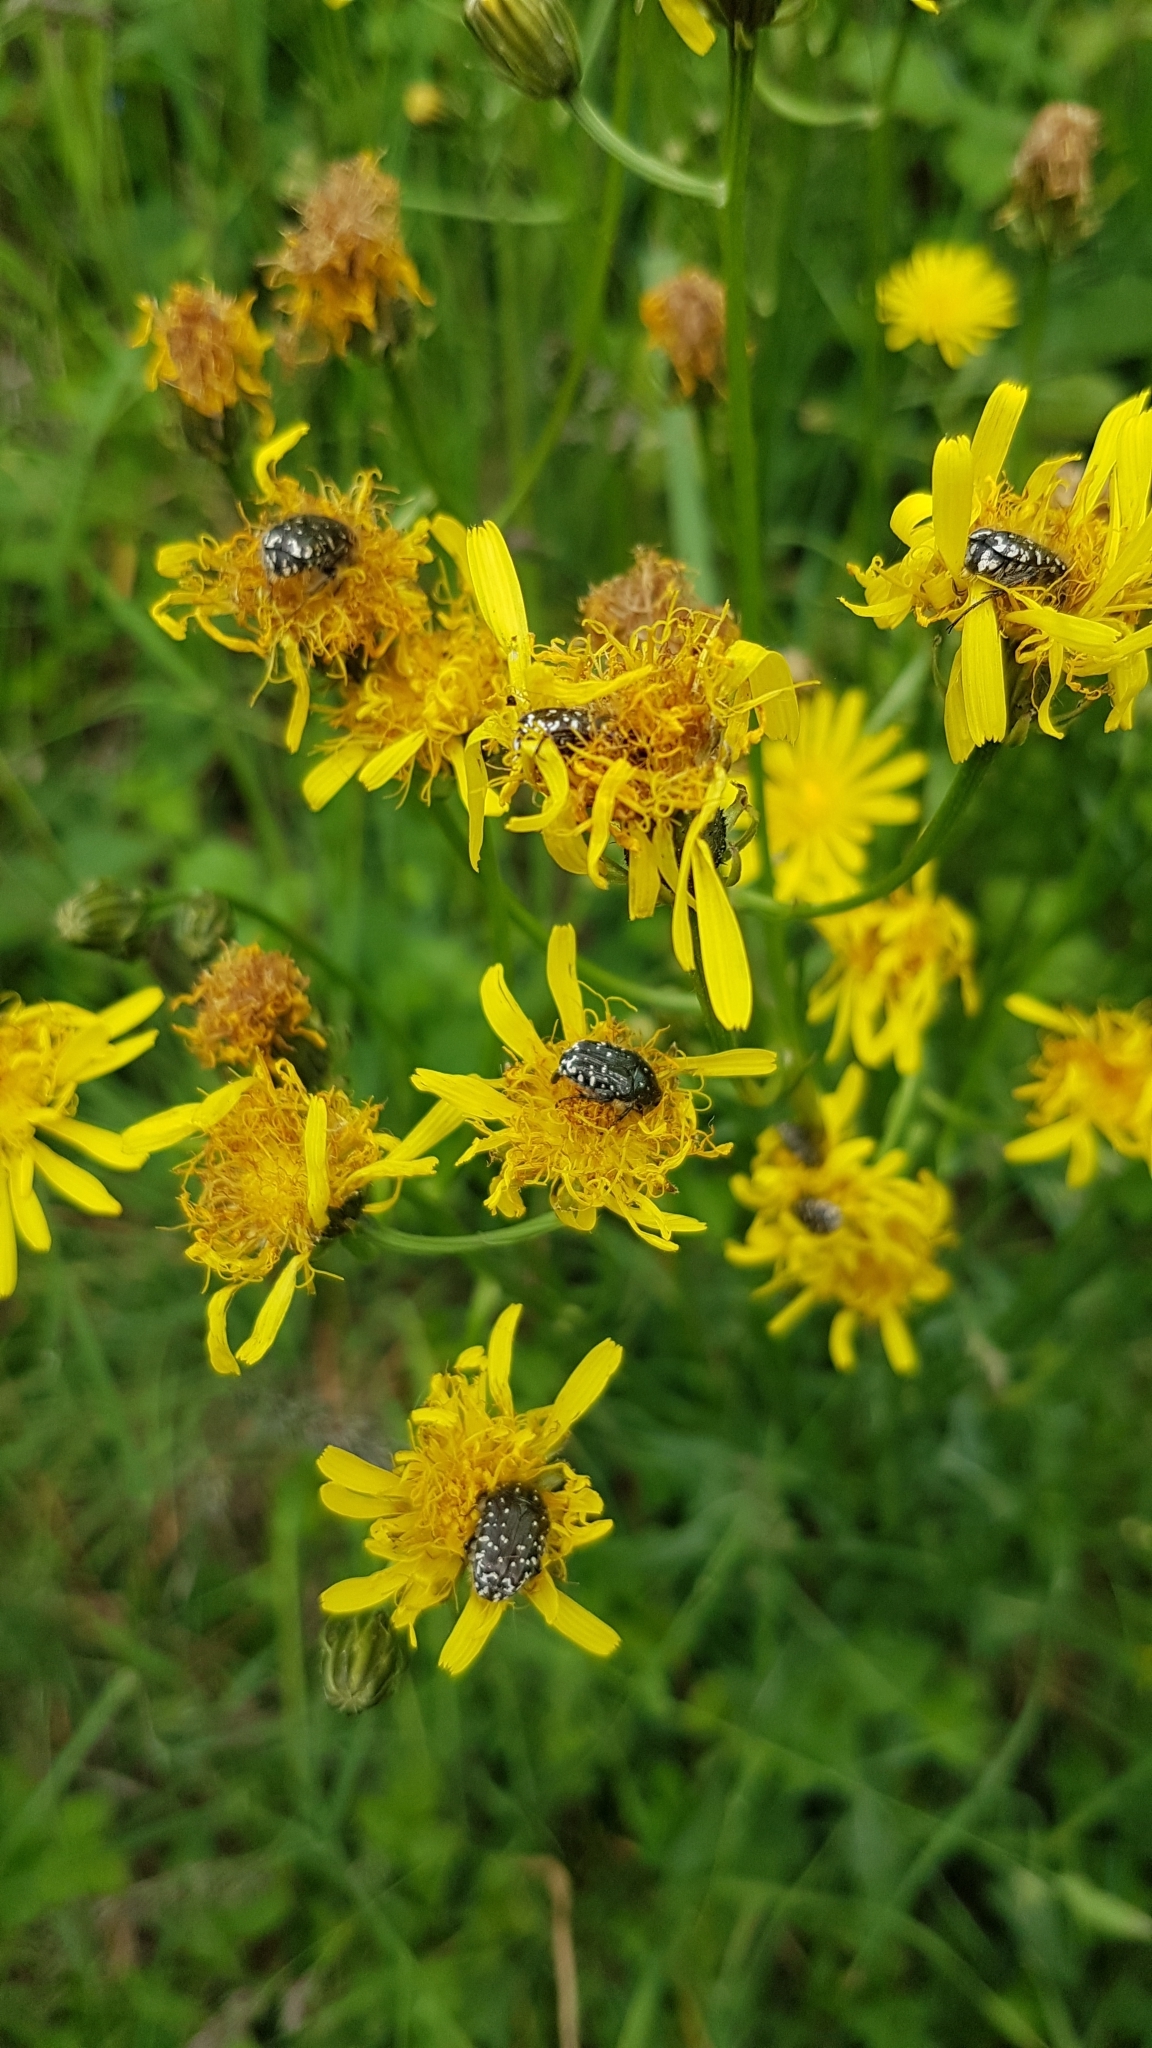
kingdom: Animalia
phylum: Arthropoda
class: Insecta
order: Coleoptera
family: Scarabaeidae
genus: Oxythyrea
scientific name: Oxythyrea funesta
